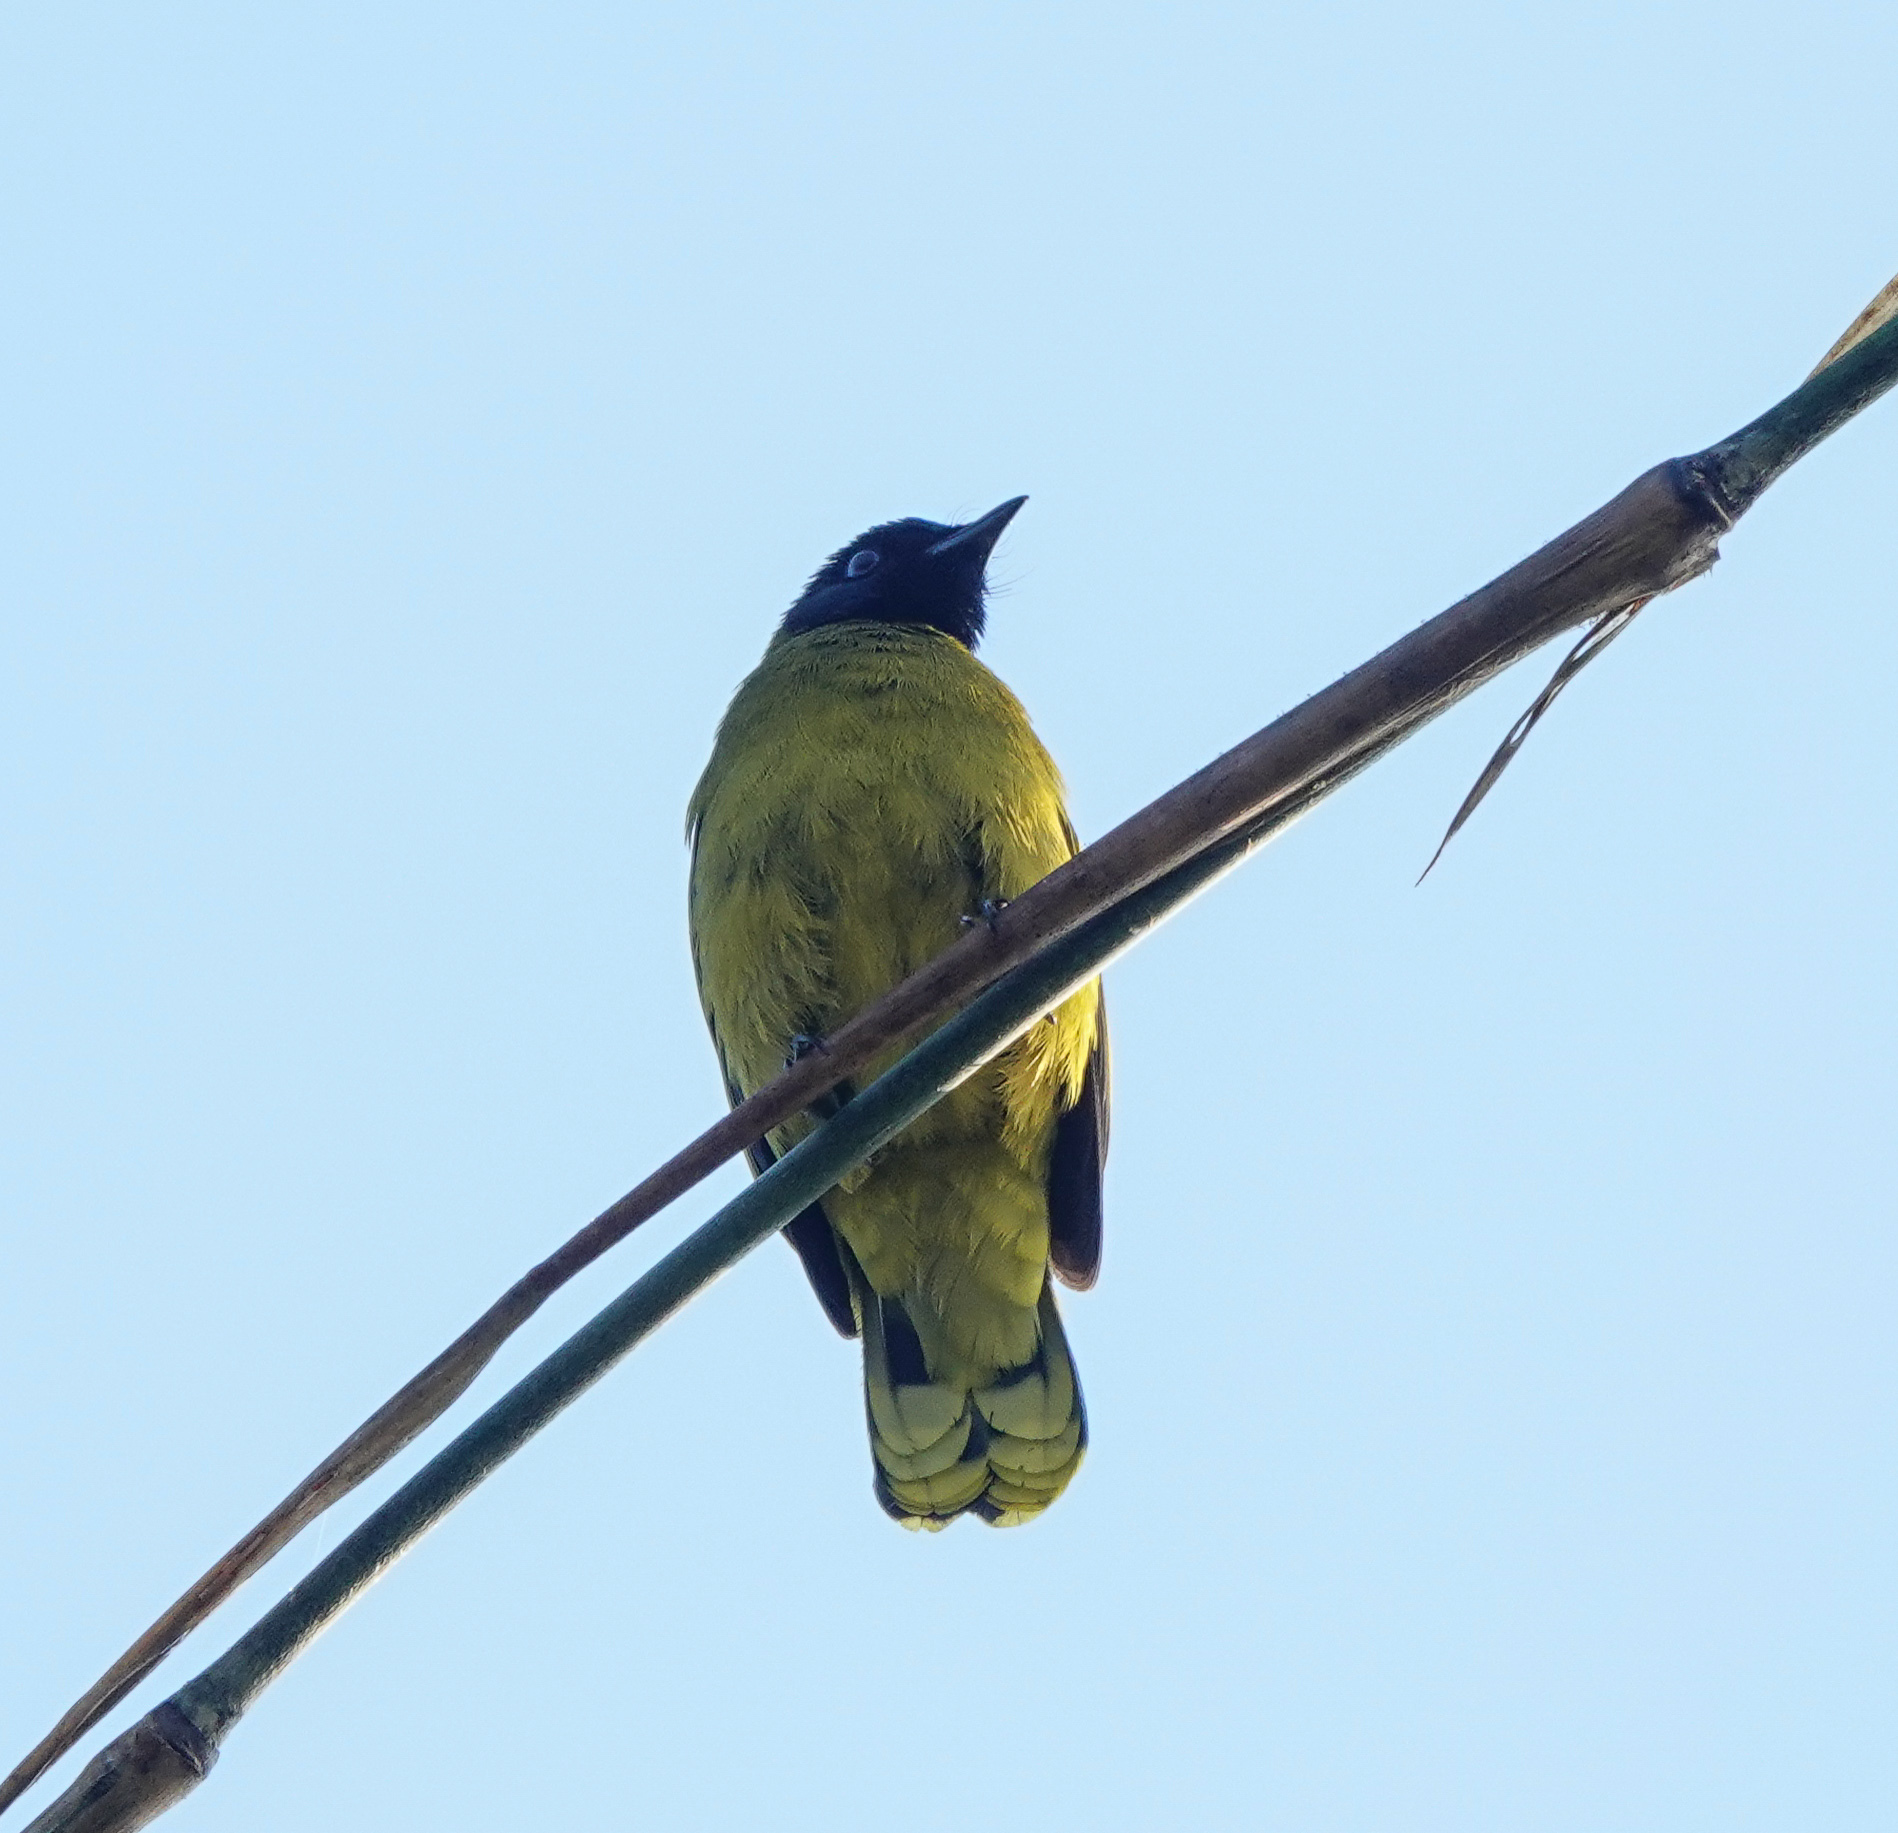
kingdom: Animalia
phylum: Chordata
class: Aves
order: Passeriformes
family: Pycnonotidae
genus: Microtarsus
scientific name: Microtarsus
